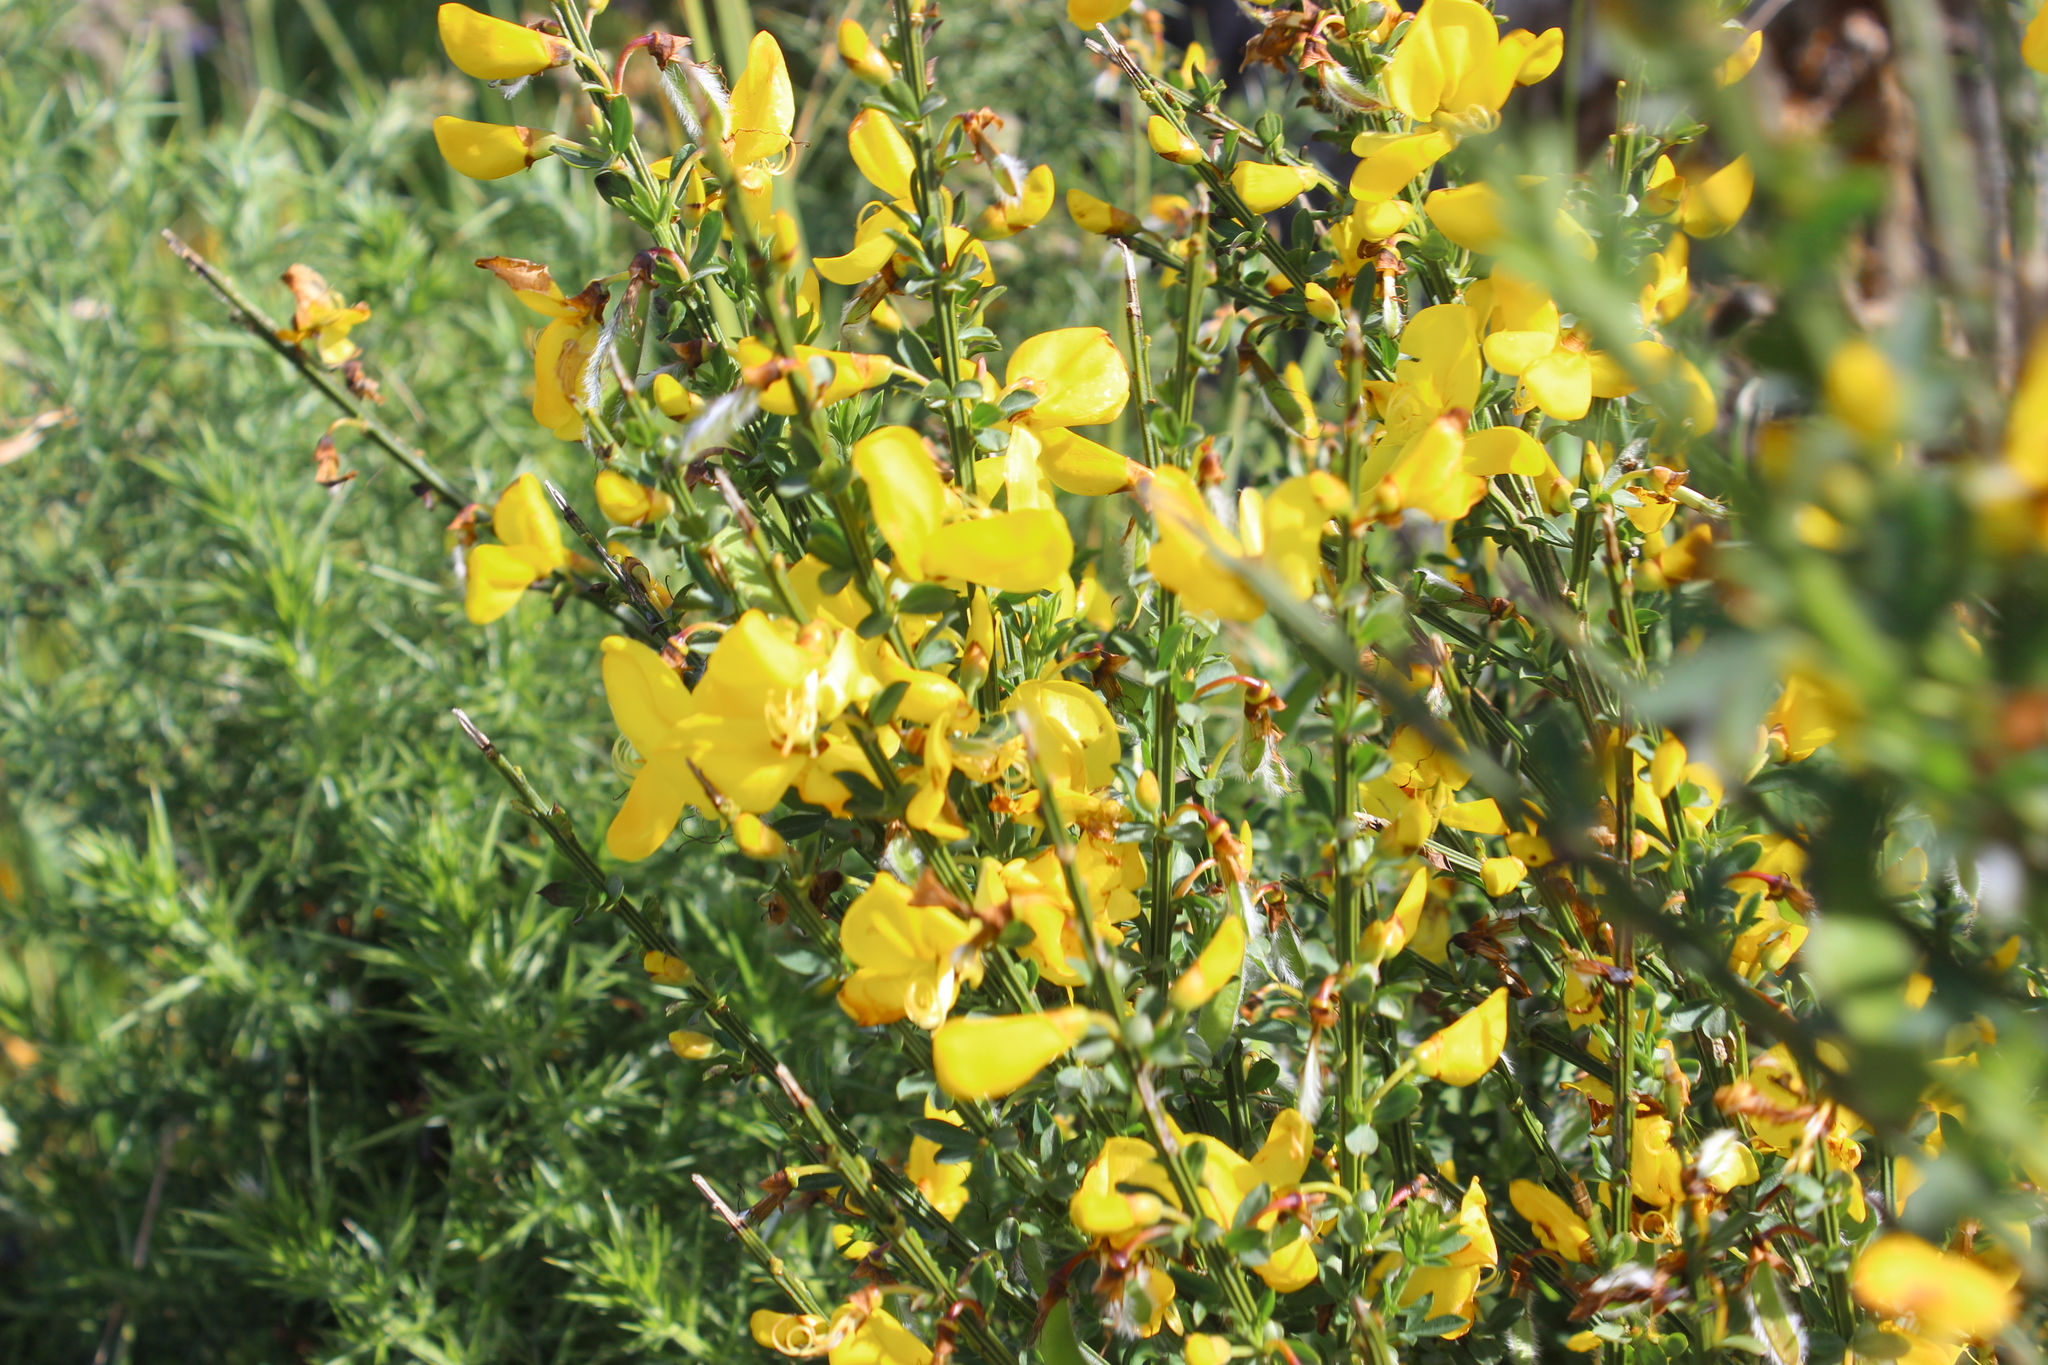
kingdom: Plantae
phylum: Tracheophyta
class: Magnoliopsida
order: Fabales
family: Fabaceae
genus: Cytisus
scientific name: Cytisus scoparius
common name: Scotch broom
